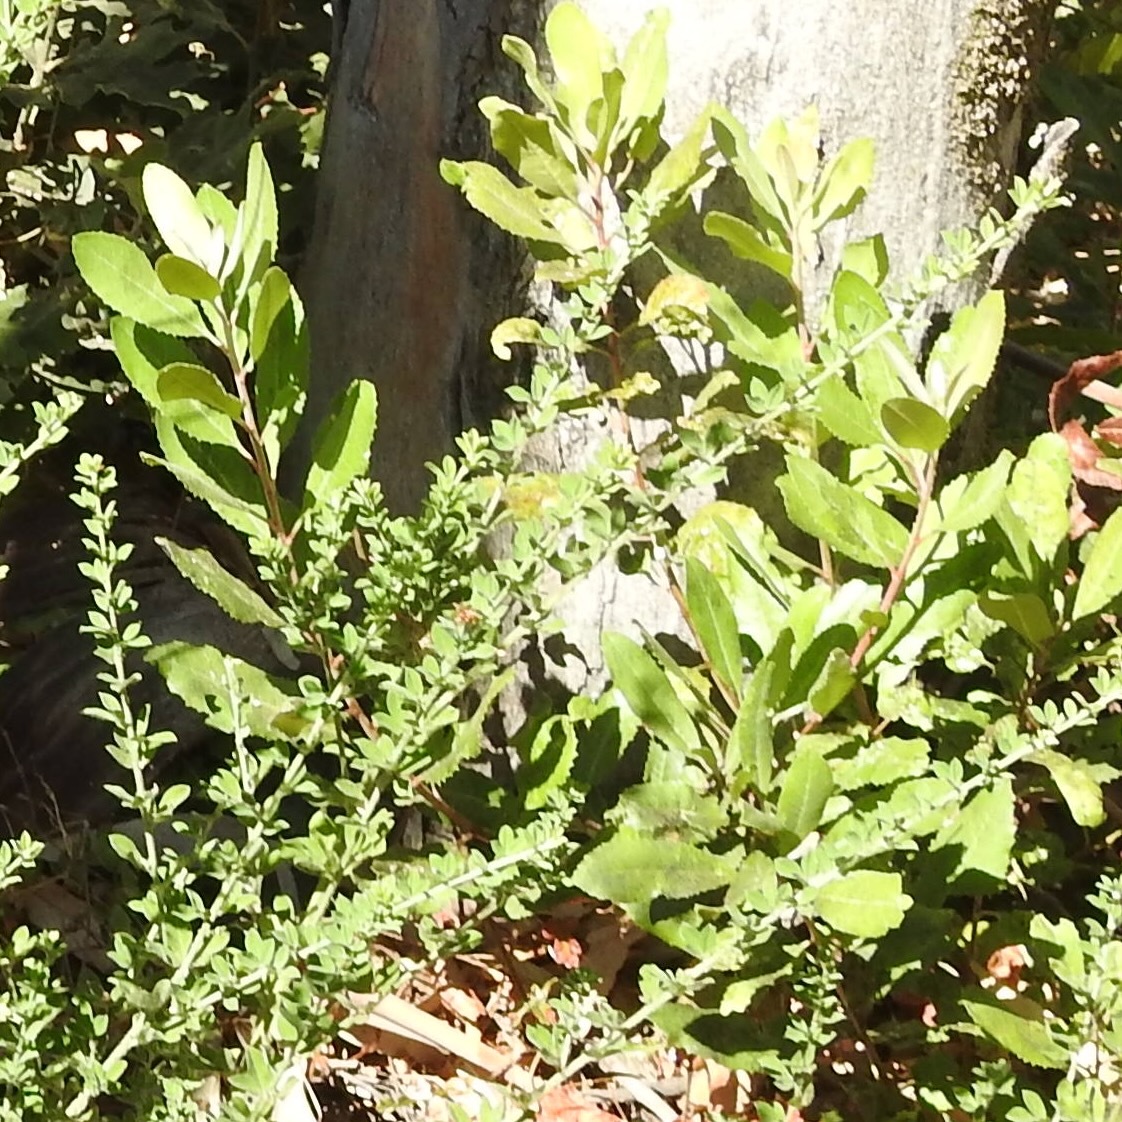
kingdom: Plantae
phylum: Tracheophyta
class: Magnoliopsida
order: Rosales
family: Rosaceae
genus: Heteromeles
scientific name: Heteromeles arbutifolia
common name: California-holly
